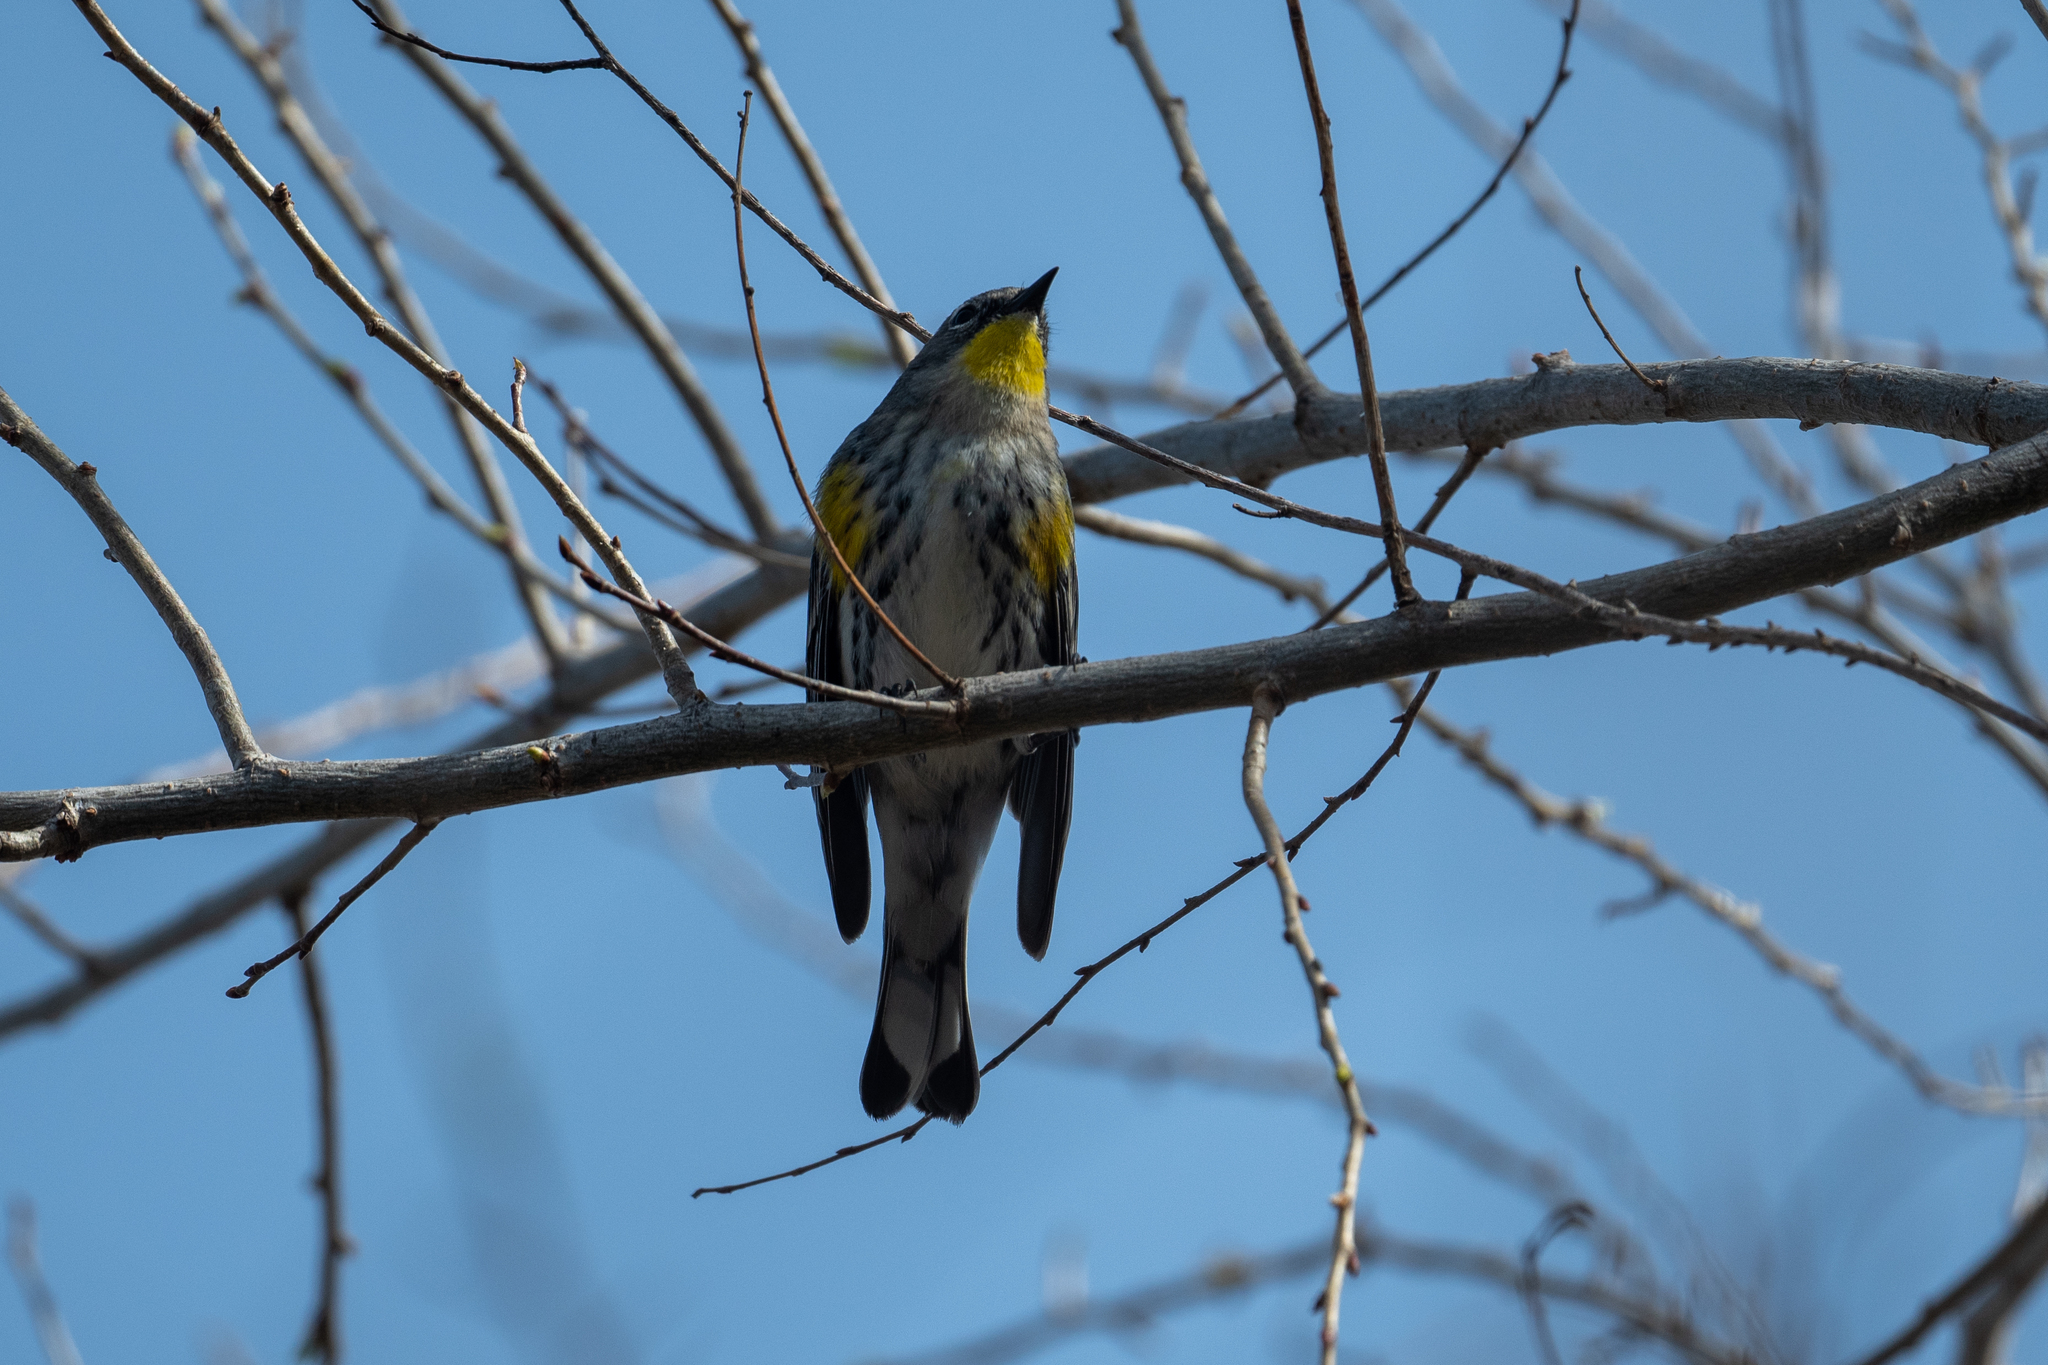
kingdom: Animalia
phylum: Chordata
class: Aves
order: Passeriformes
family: Parulidae
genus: Setophaga
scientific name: Setophaga coronata
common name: Myrtle warbler
